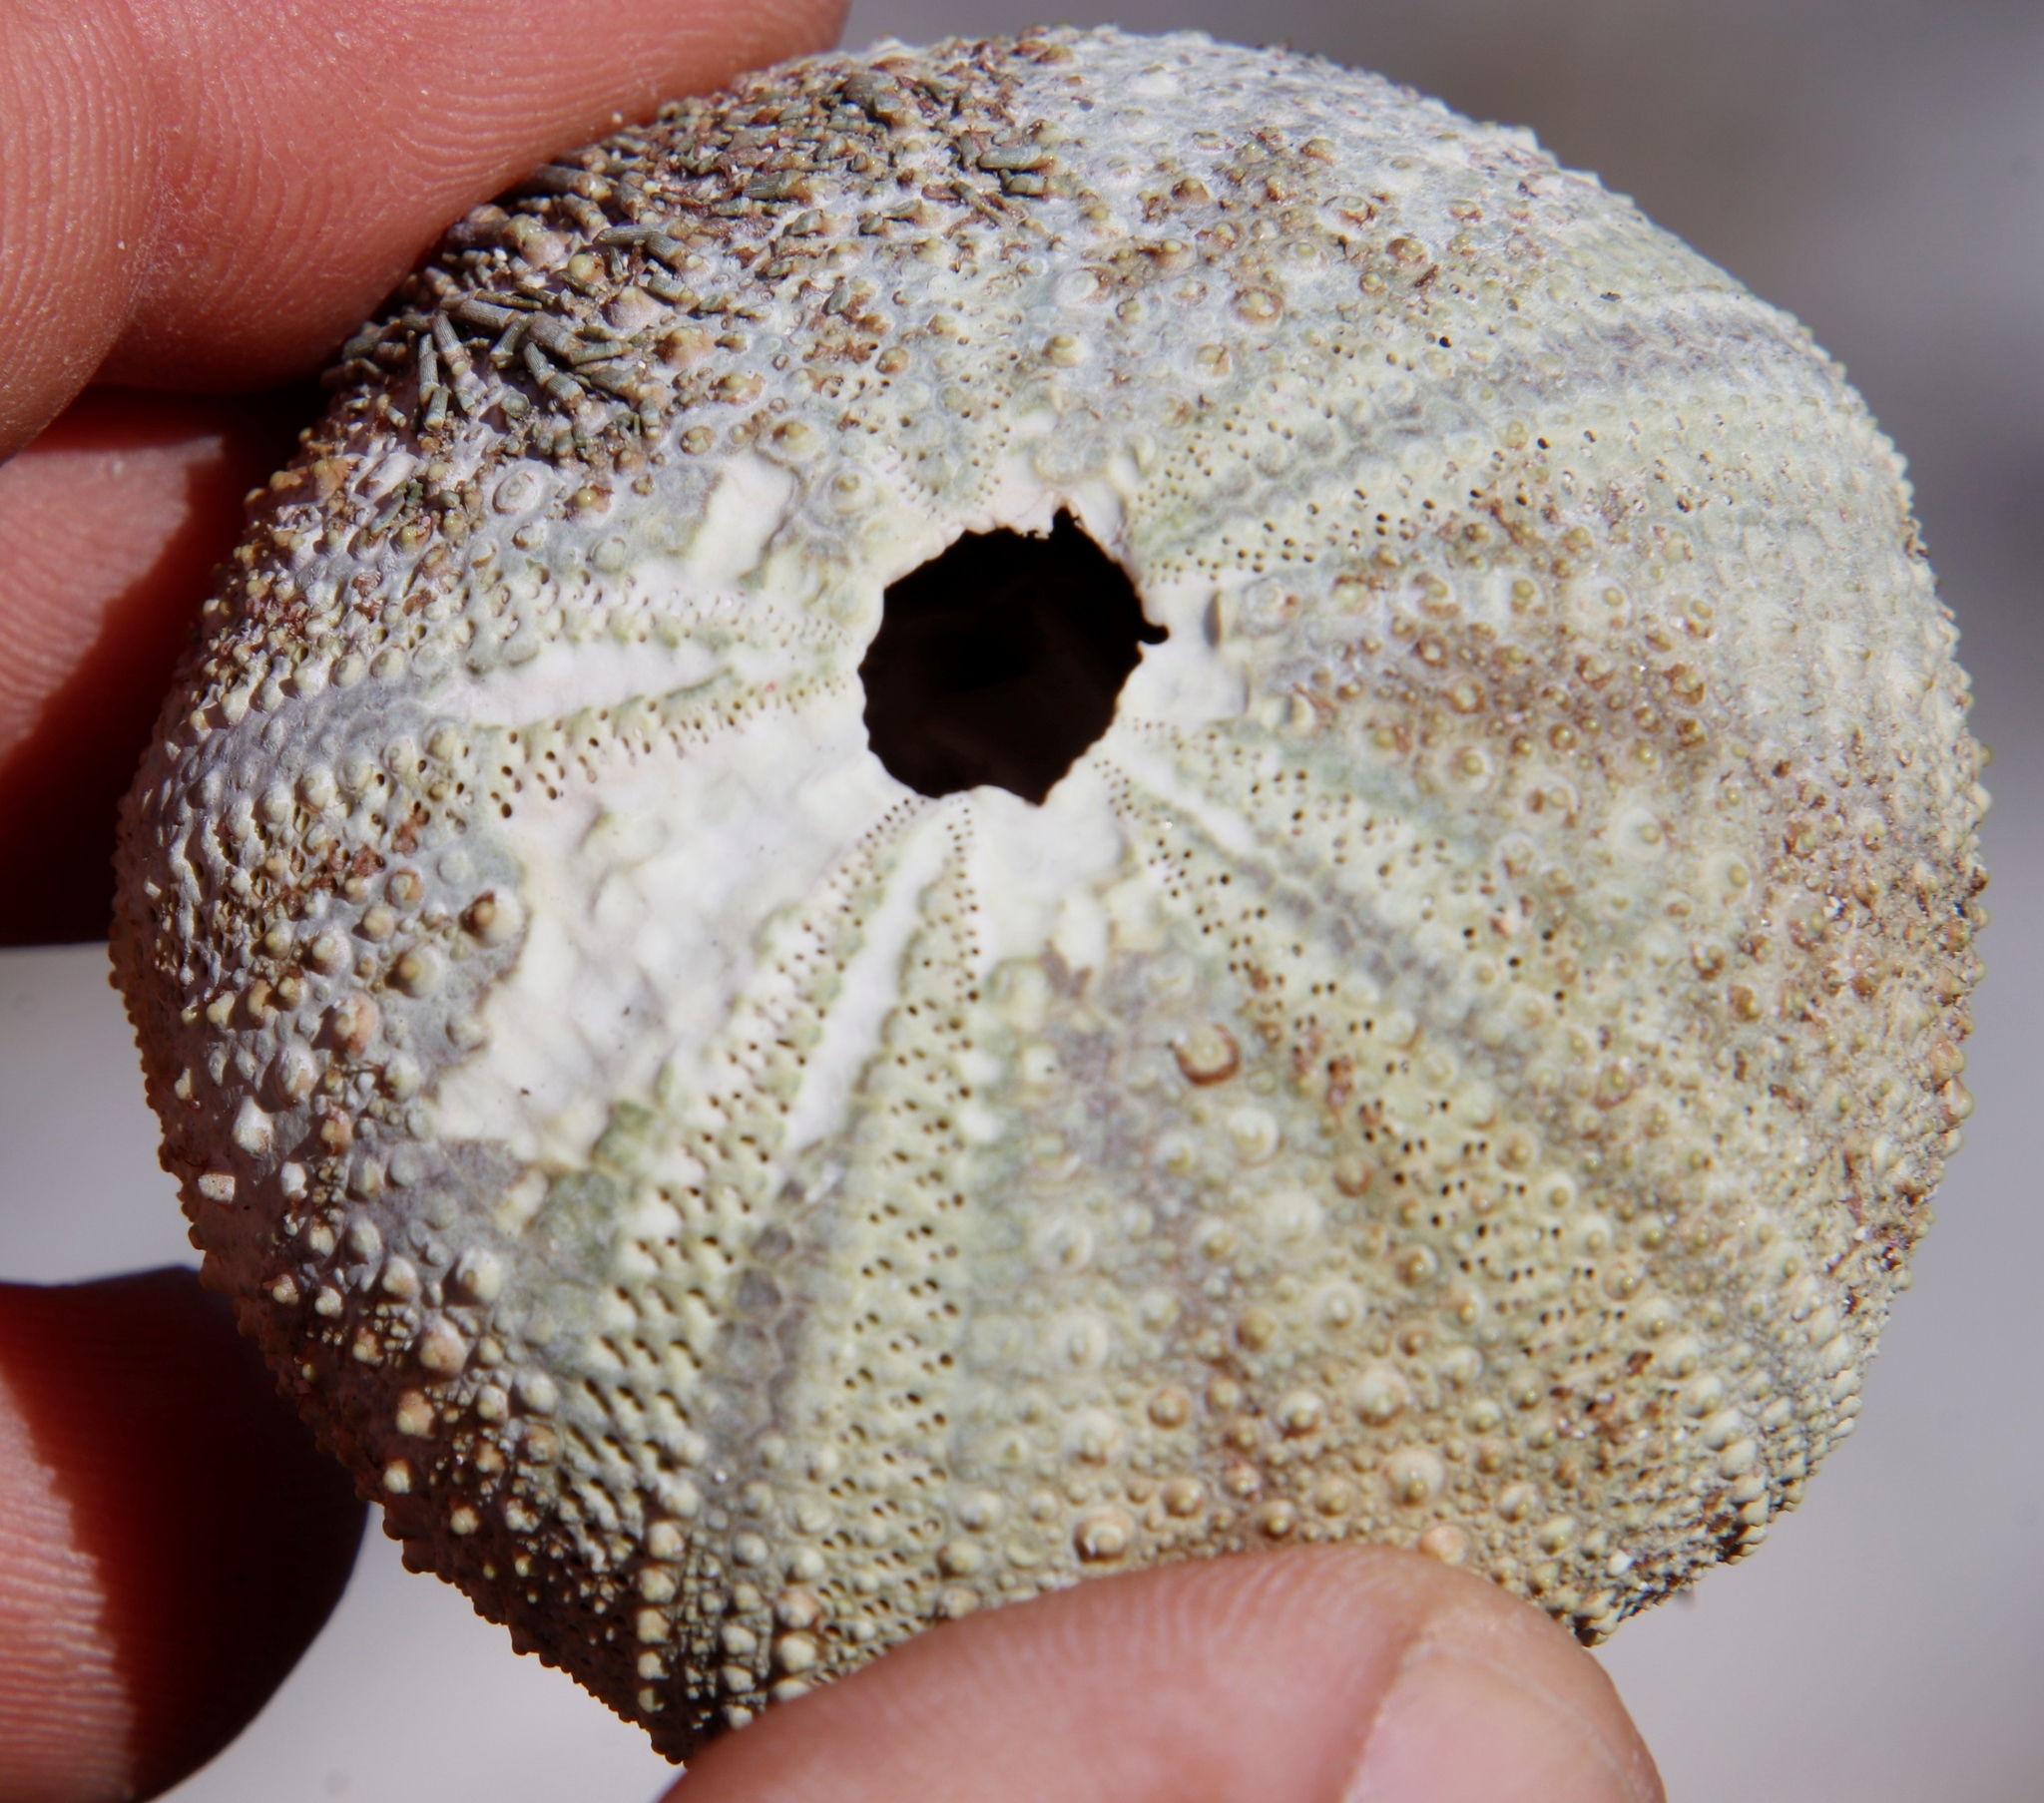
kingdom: Animalia
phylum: Echinodermata
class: Echinoidea
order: Camarodonta
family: Parechinidae
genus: Parechinus
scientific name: Parechinus angulosus
